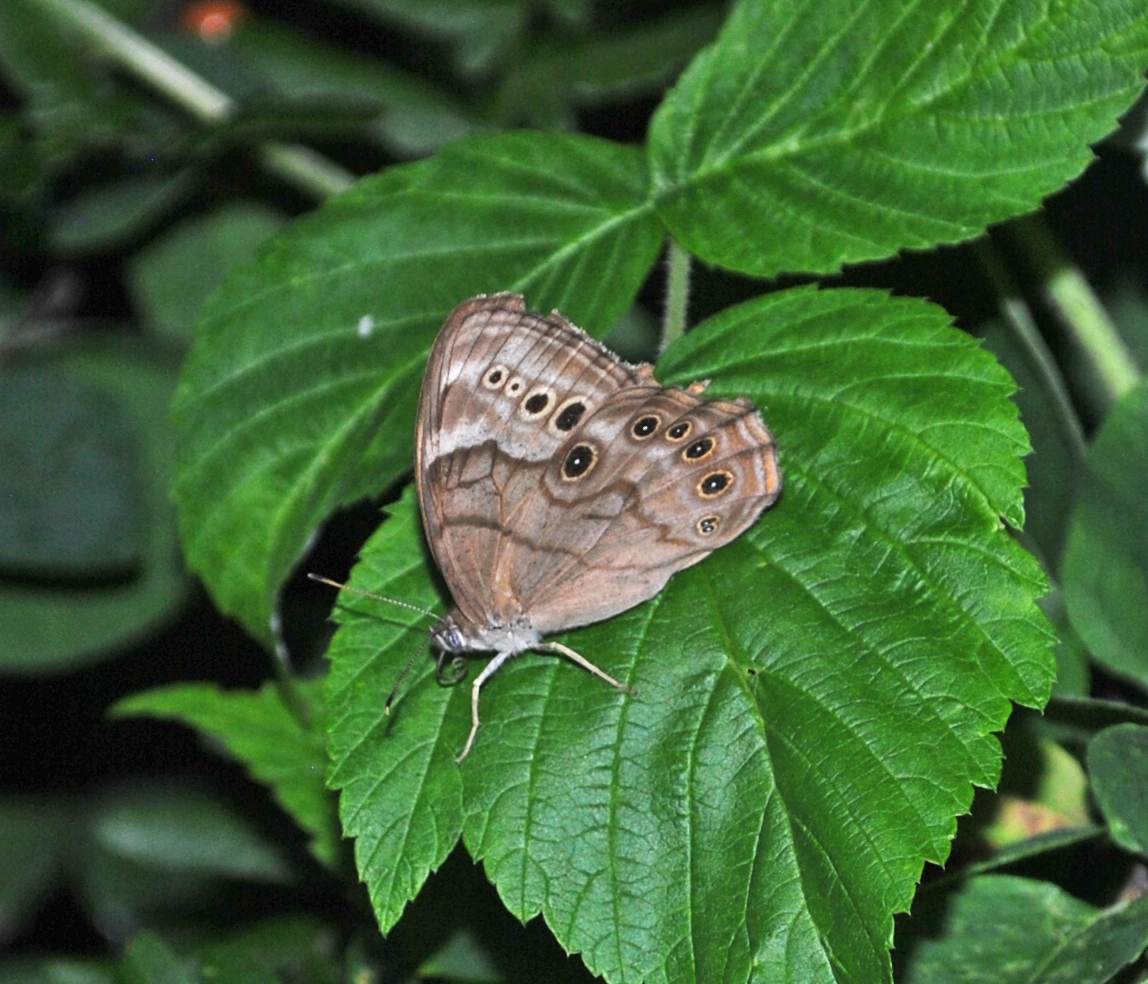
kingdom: Animalia
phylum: Arthropoda
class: Insecta
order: Lepidoptera
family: Nymphalidae
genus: Lethe
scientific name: Lethe anthedon
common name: Northern pearly-eye
